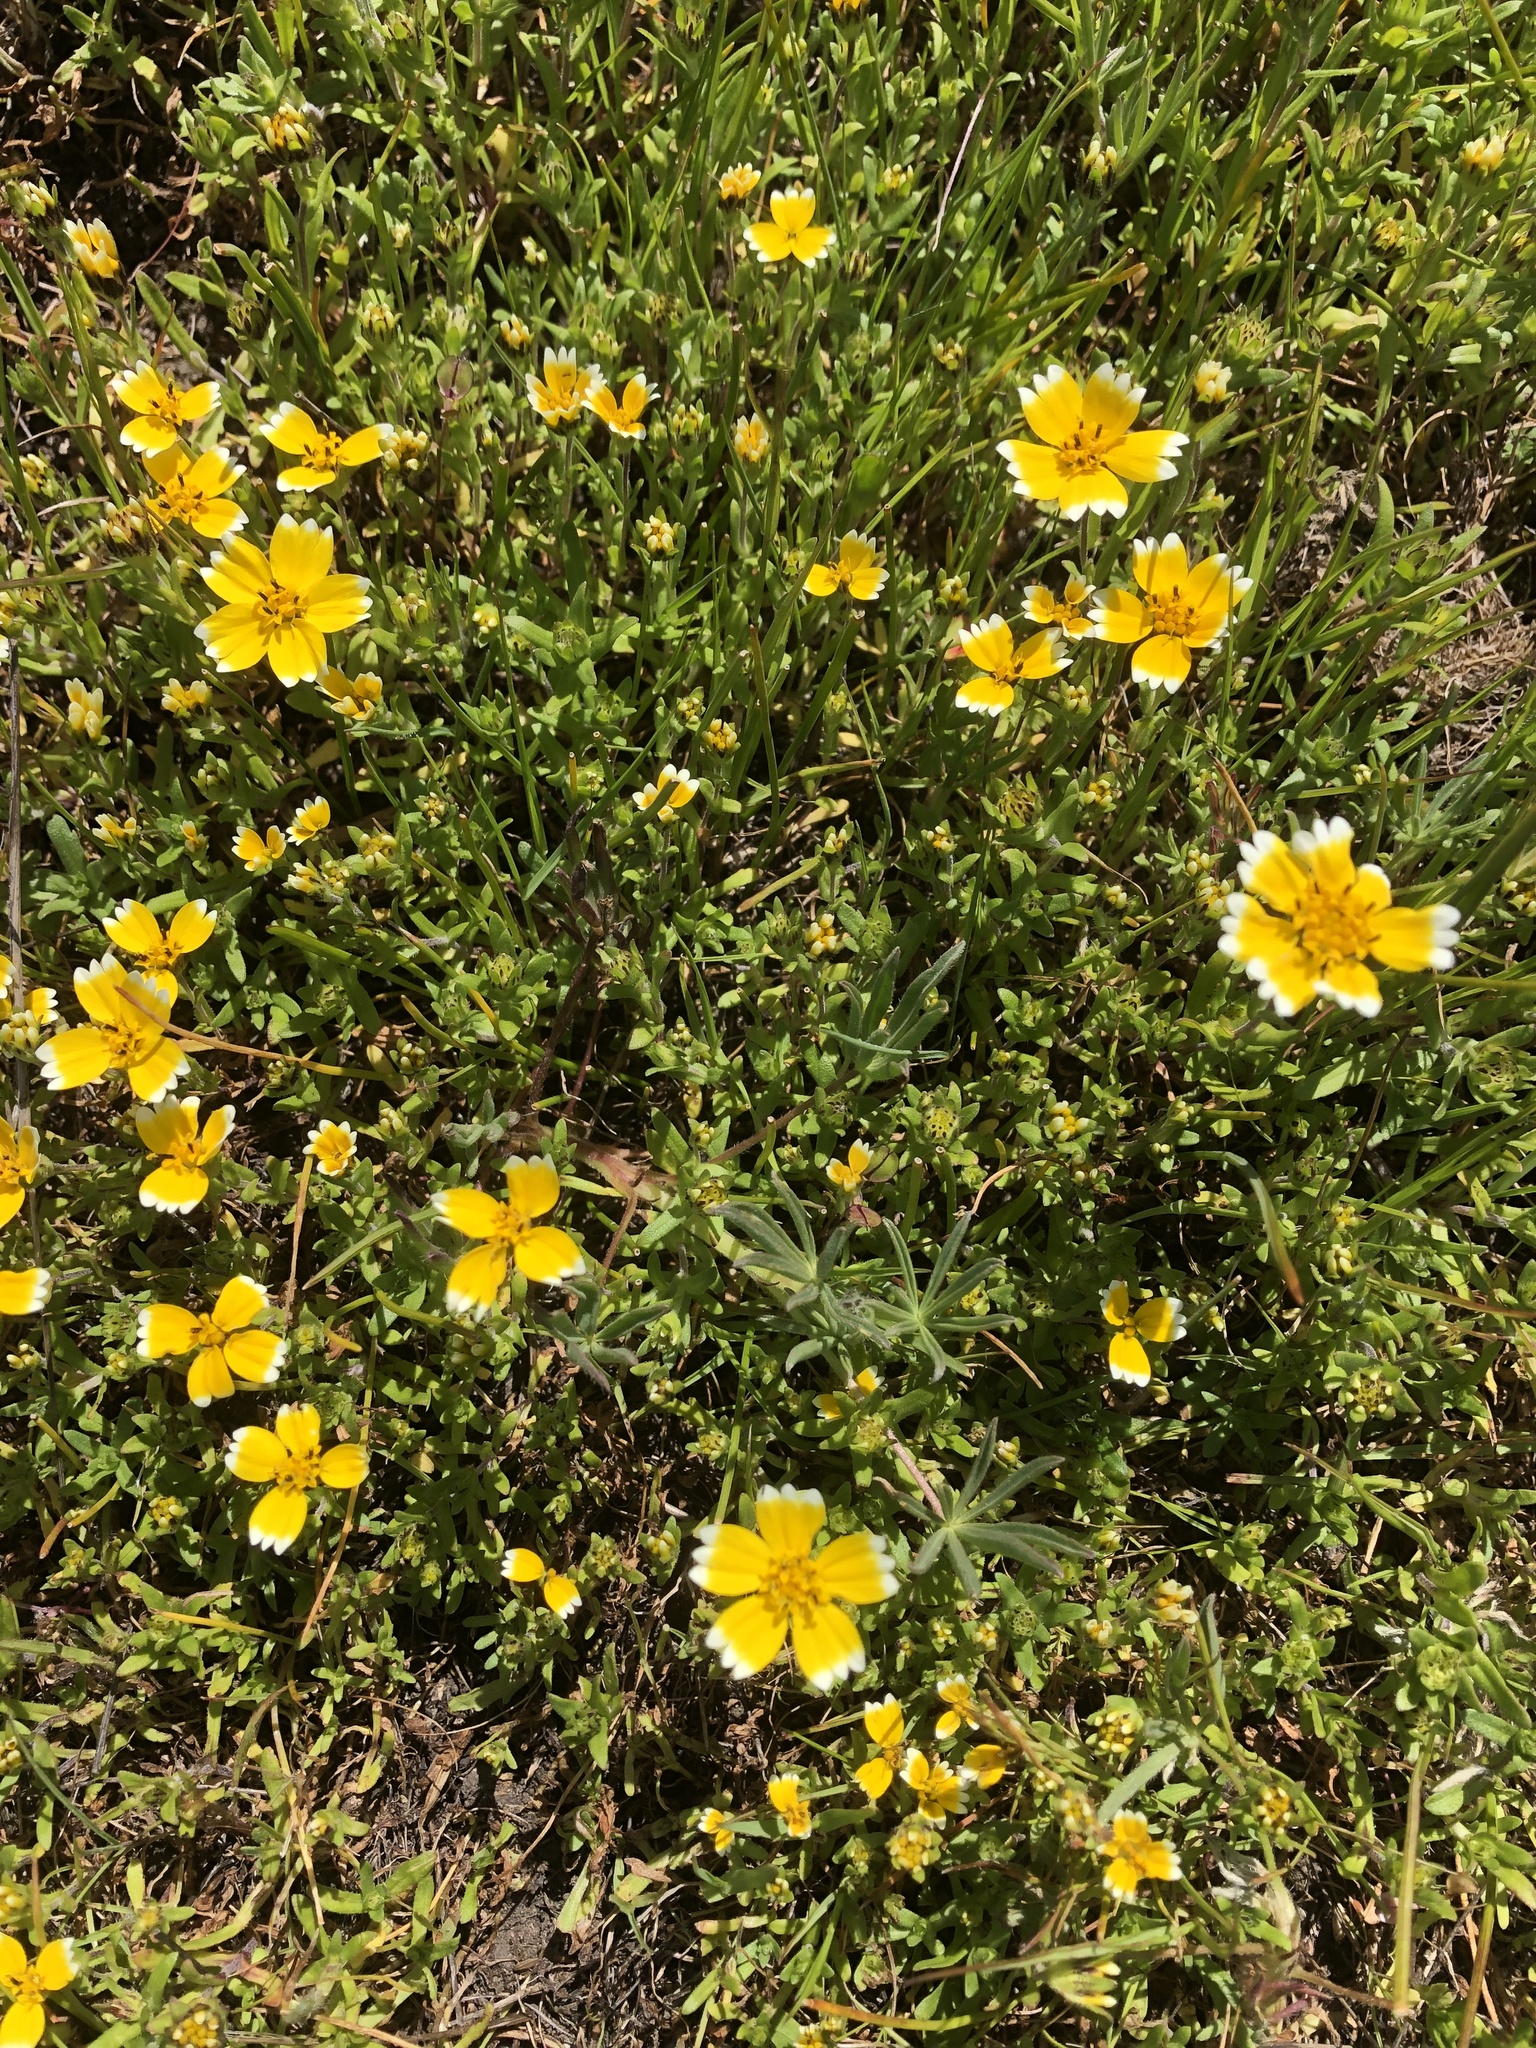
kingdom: Plantae
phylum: Tracheophyta
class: Magnoliopsida
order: Asterales
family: Asteraceae
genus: Layia
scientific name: Layia platyglossa
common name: Tidy-tips
